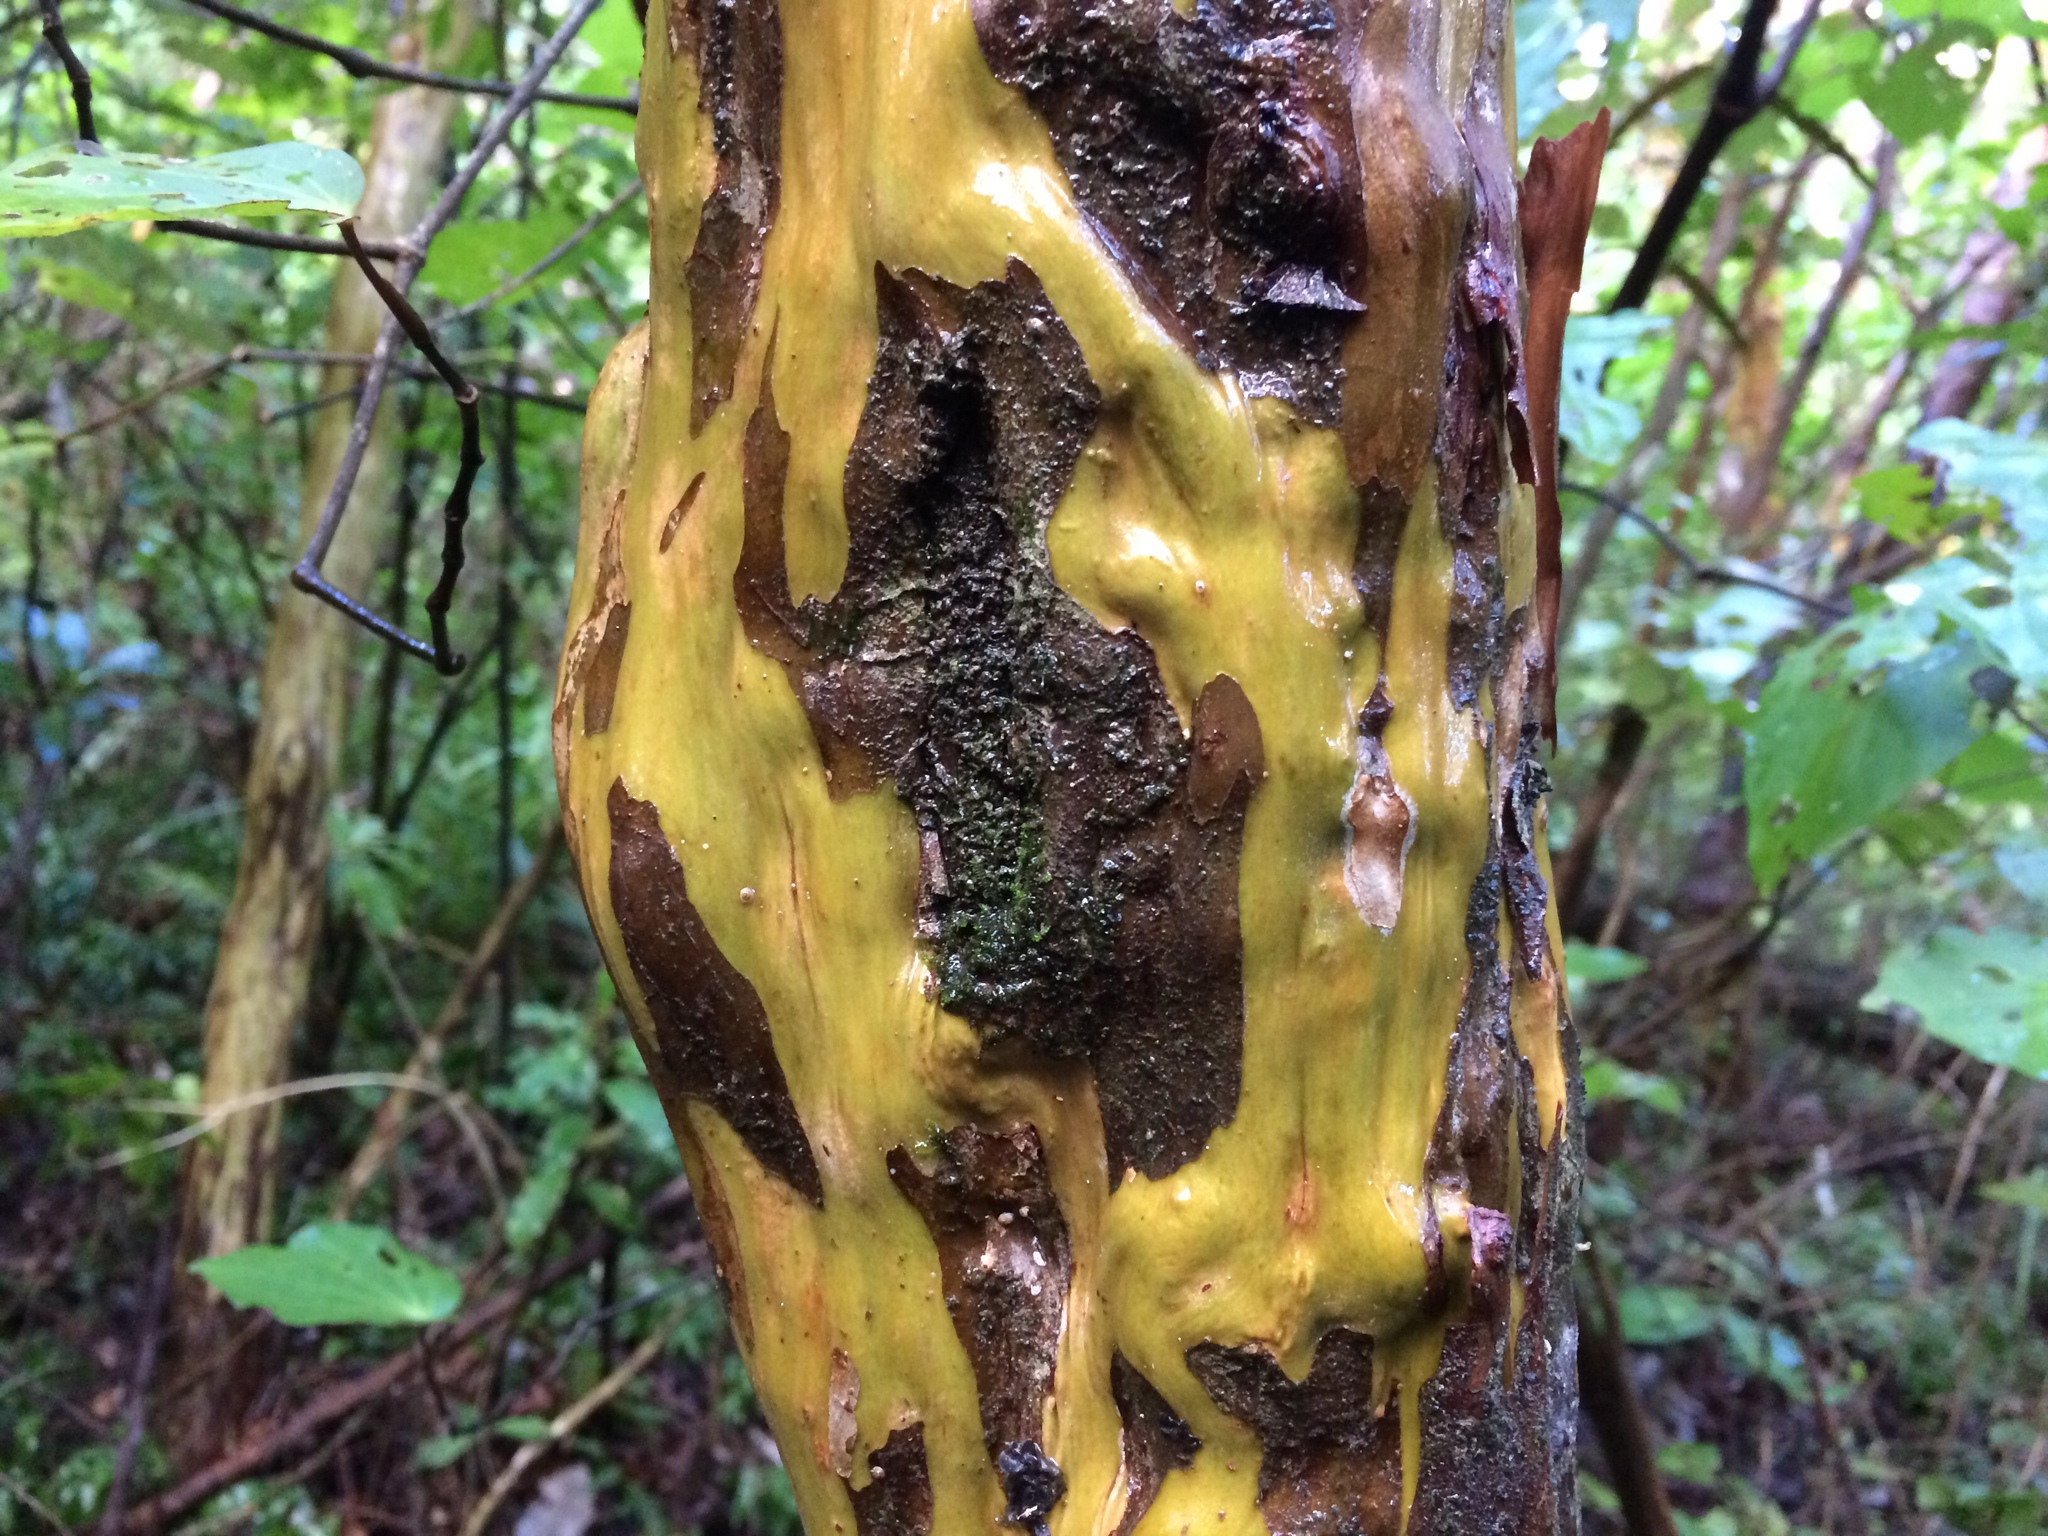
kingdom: Plantae
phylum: Tracheophyta
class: Magnoliopsida
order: Myrtales
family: Myrtaceae
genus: Lophomyrtus
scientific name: Lophomyrtus obcordata
